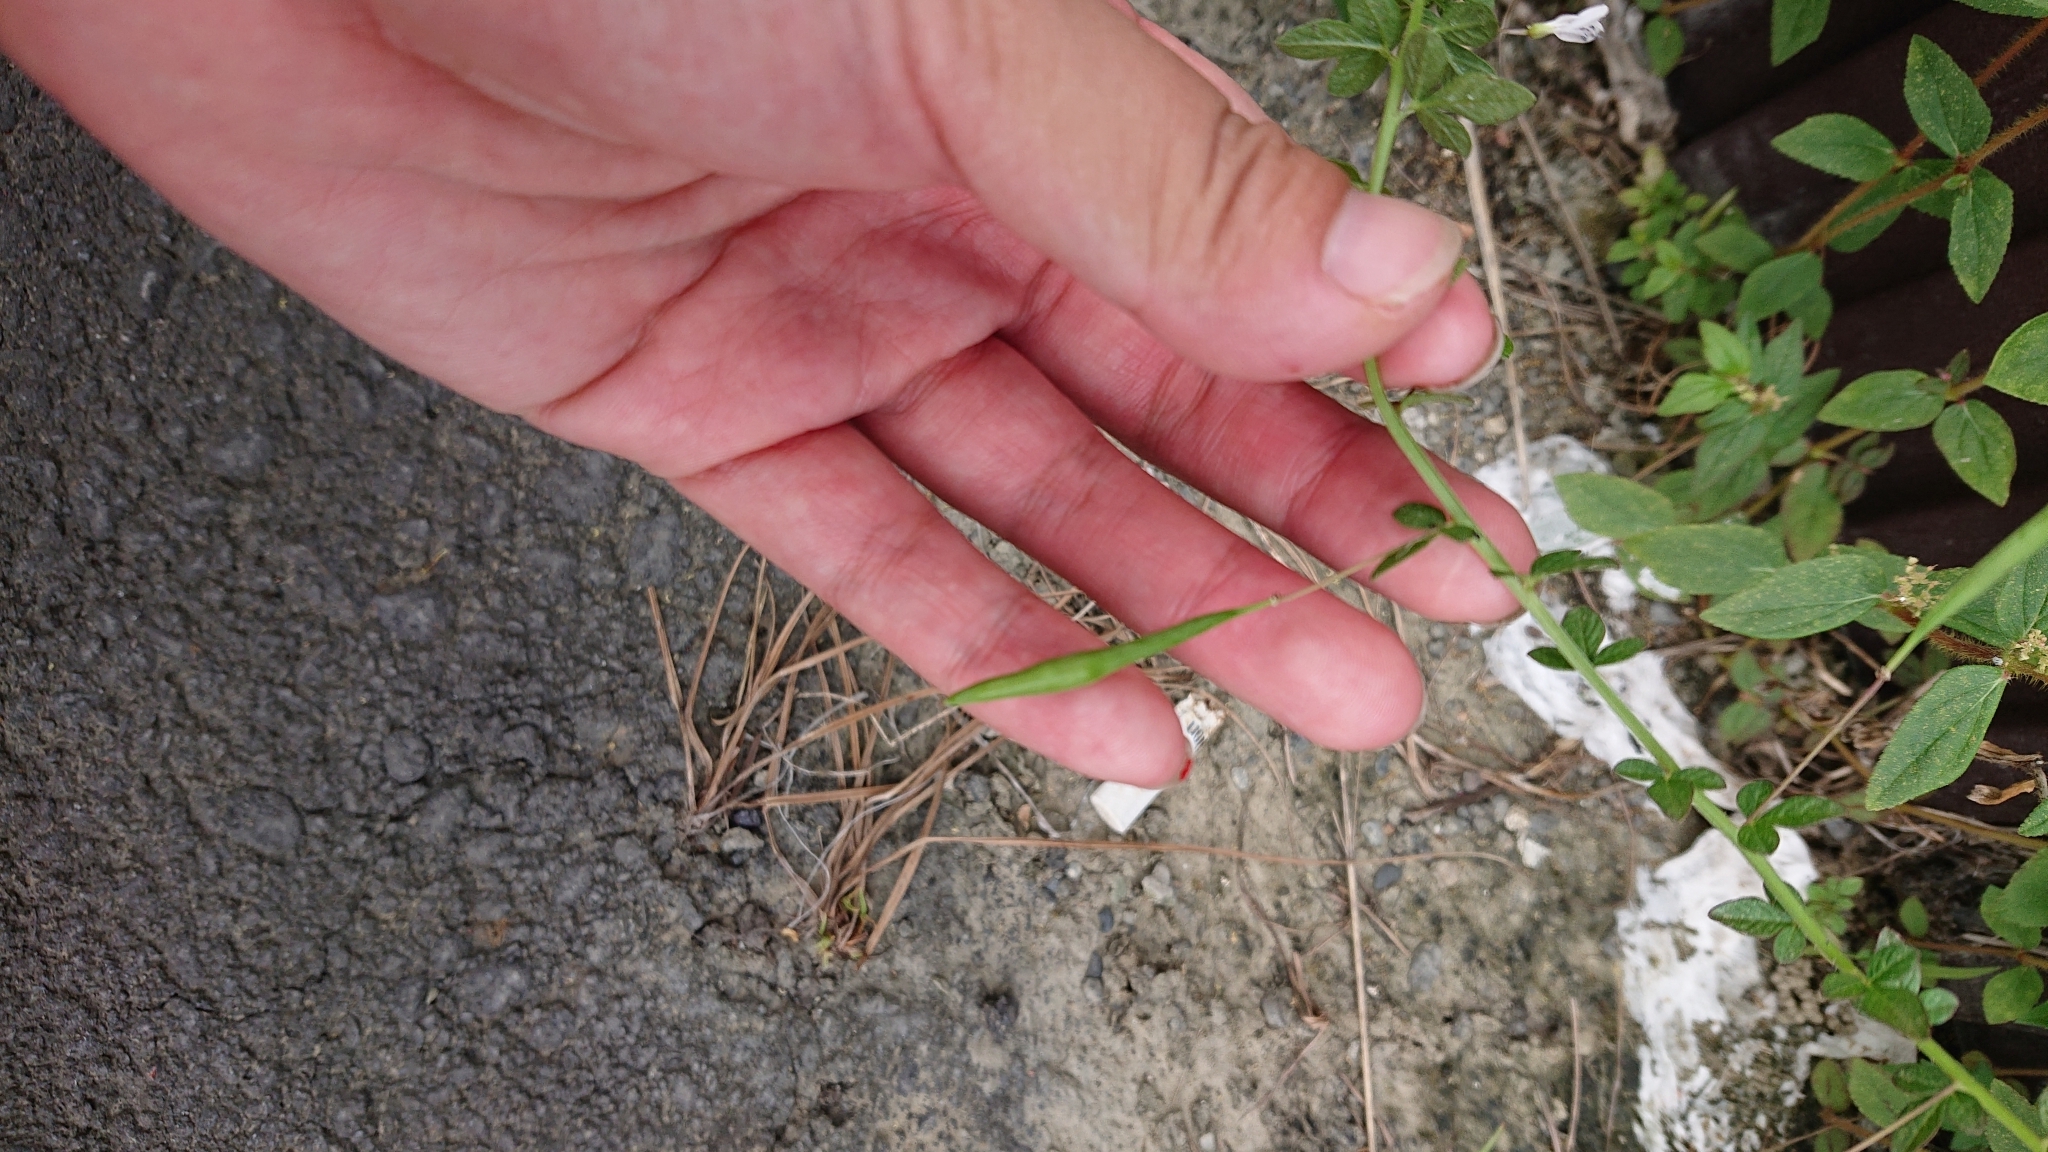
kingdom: Plantae
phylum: Tracheophyta
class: Magnoliopsida
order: Brassicales
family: Cleomaceae
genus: Sieruela
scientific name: Sieruela rutidosperma
